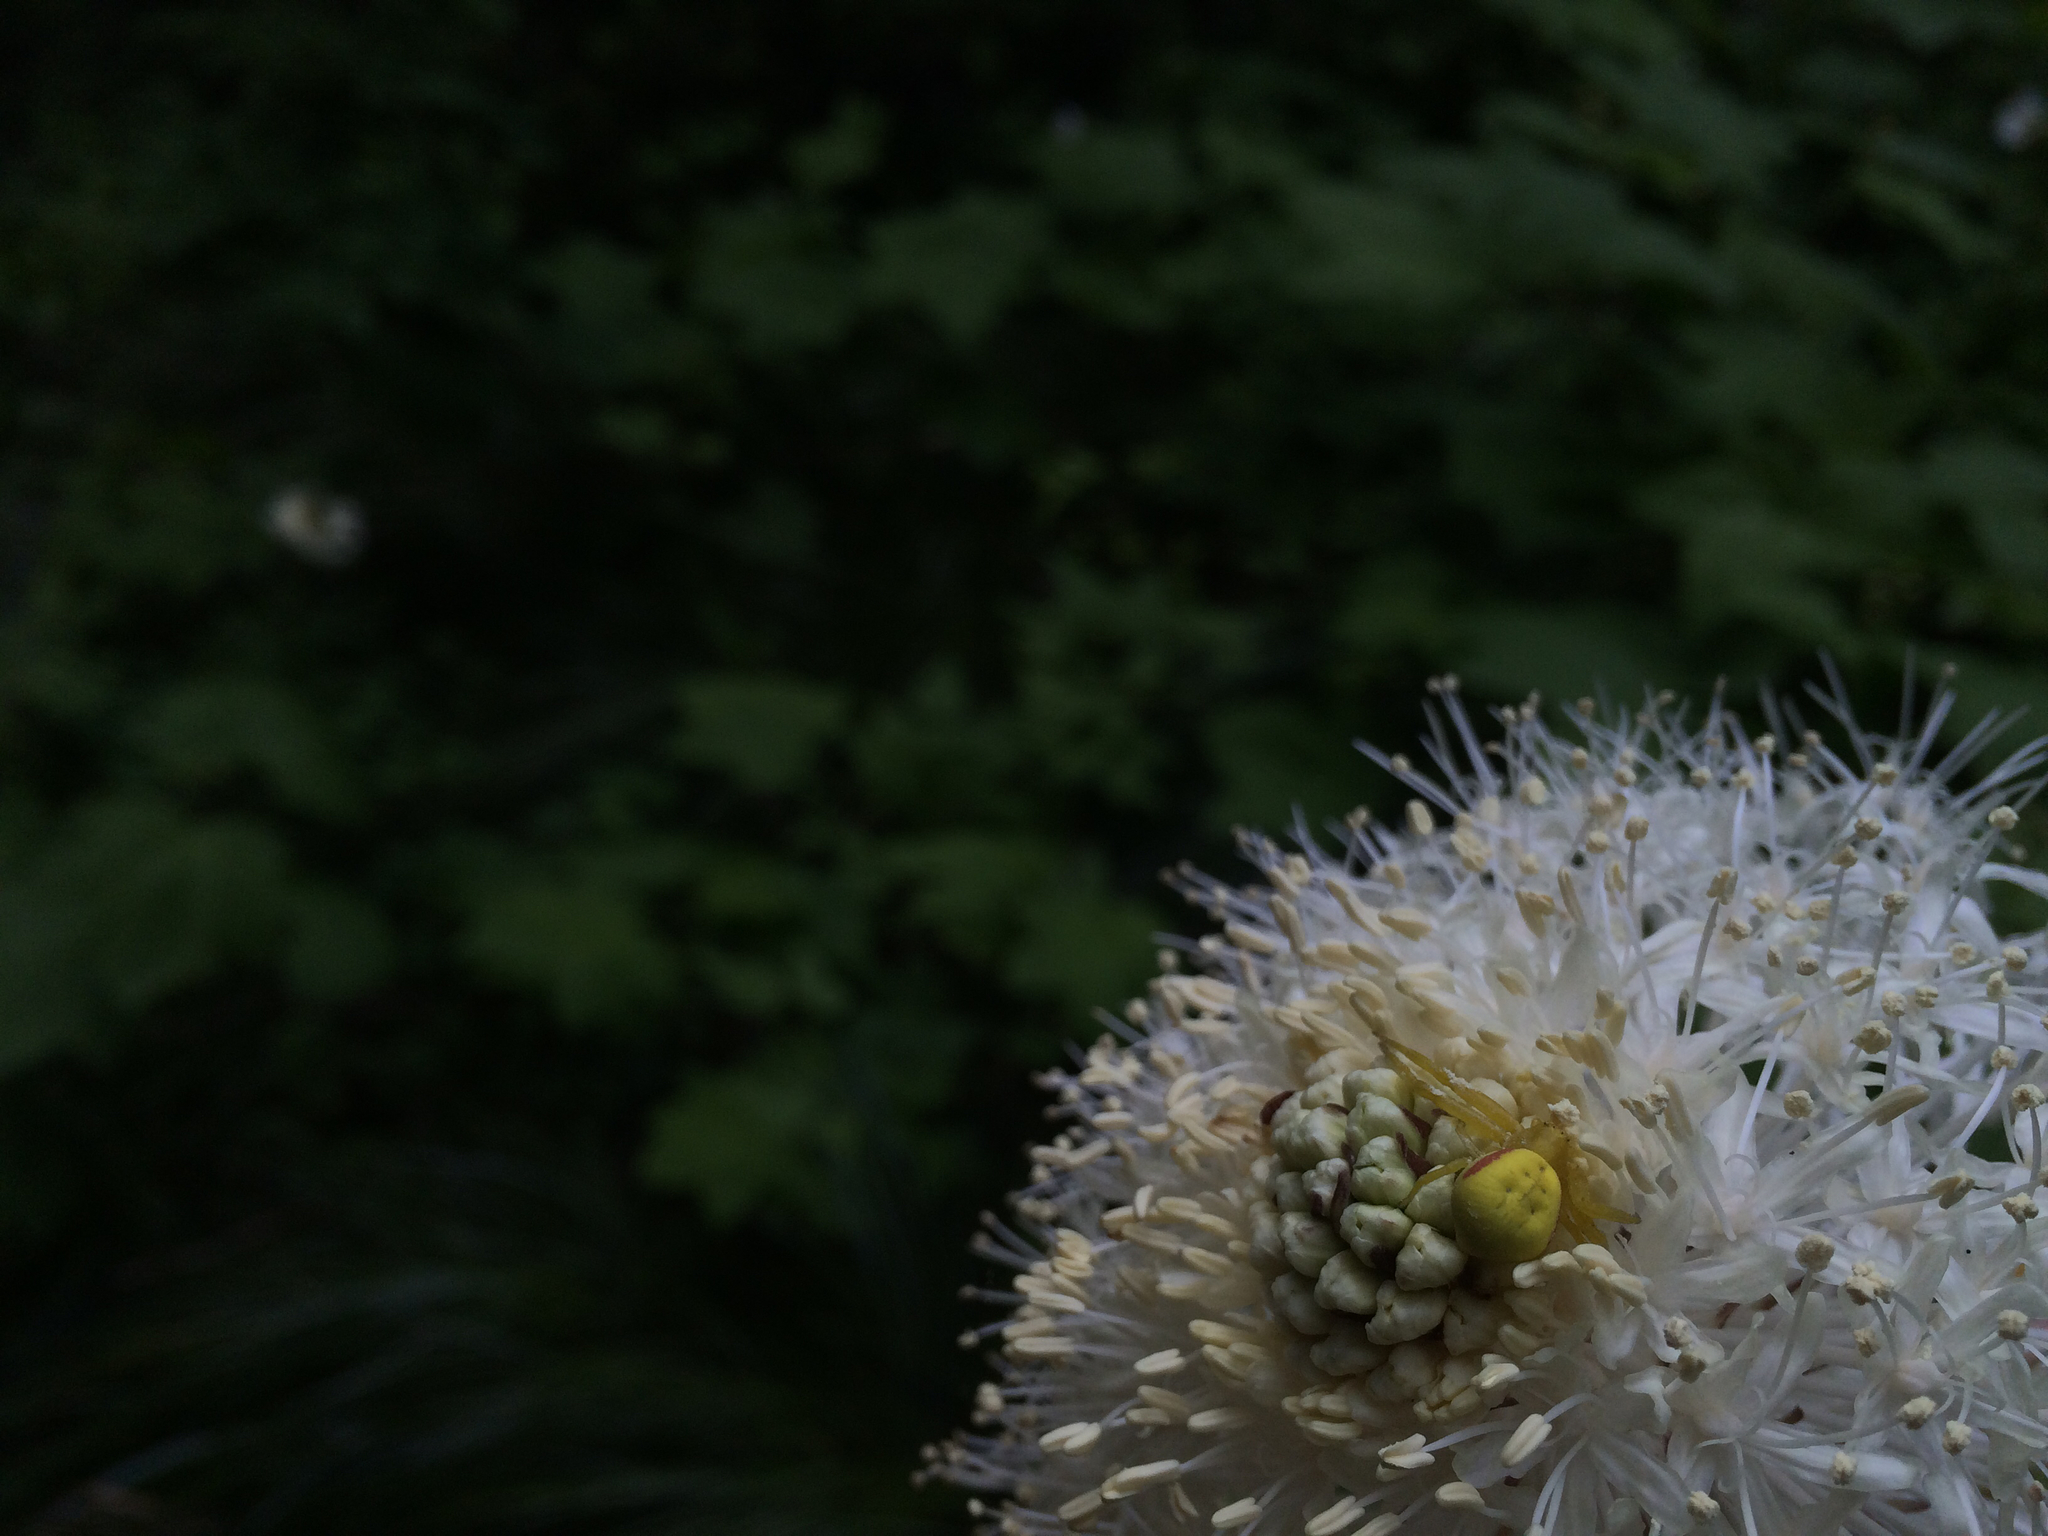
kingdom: Animalia
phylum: Arthropoda
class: Arachnida
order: Araneae
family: Thomisidae
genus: Misumena
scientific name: Misumena vatia
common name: Goldenrod crab spider
